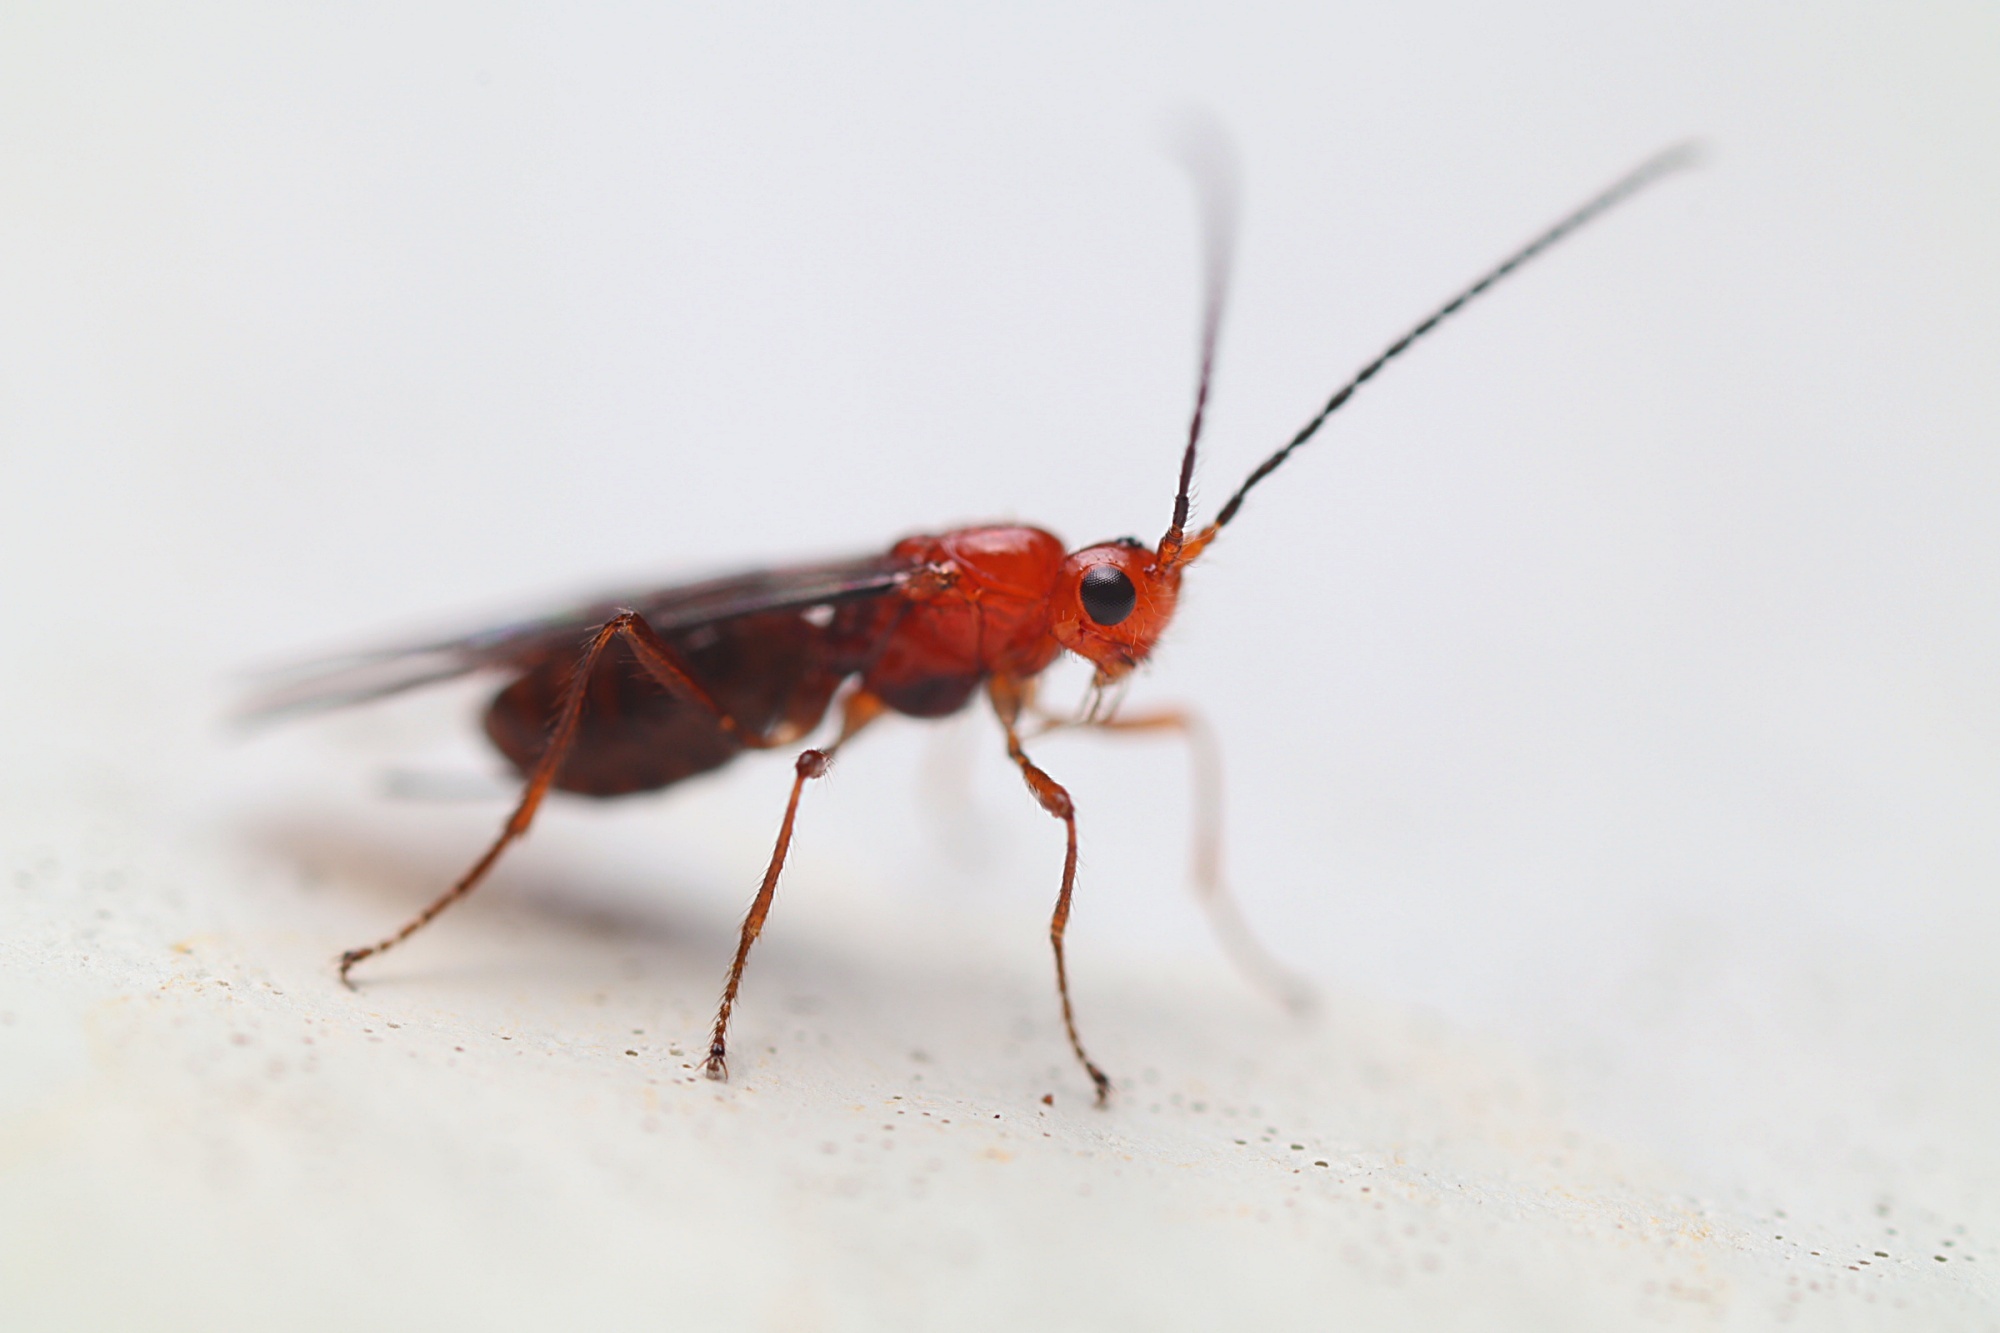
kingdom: Animalia
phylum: Arthropoda
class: Insecta
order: Hymenoptera
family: Braconidae
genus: Asobara
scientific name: Asobara antipoda
